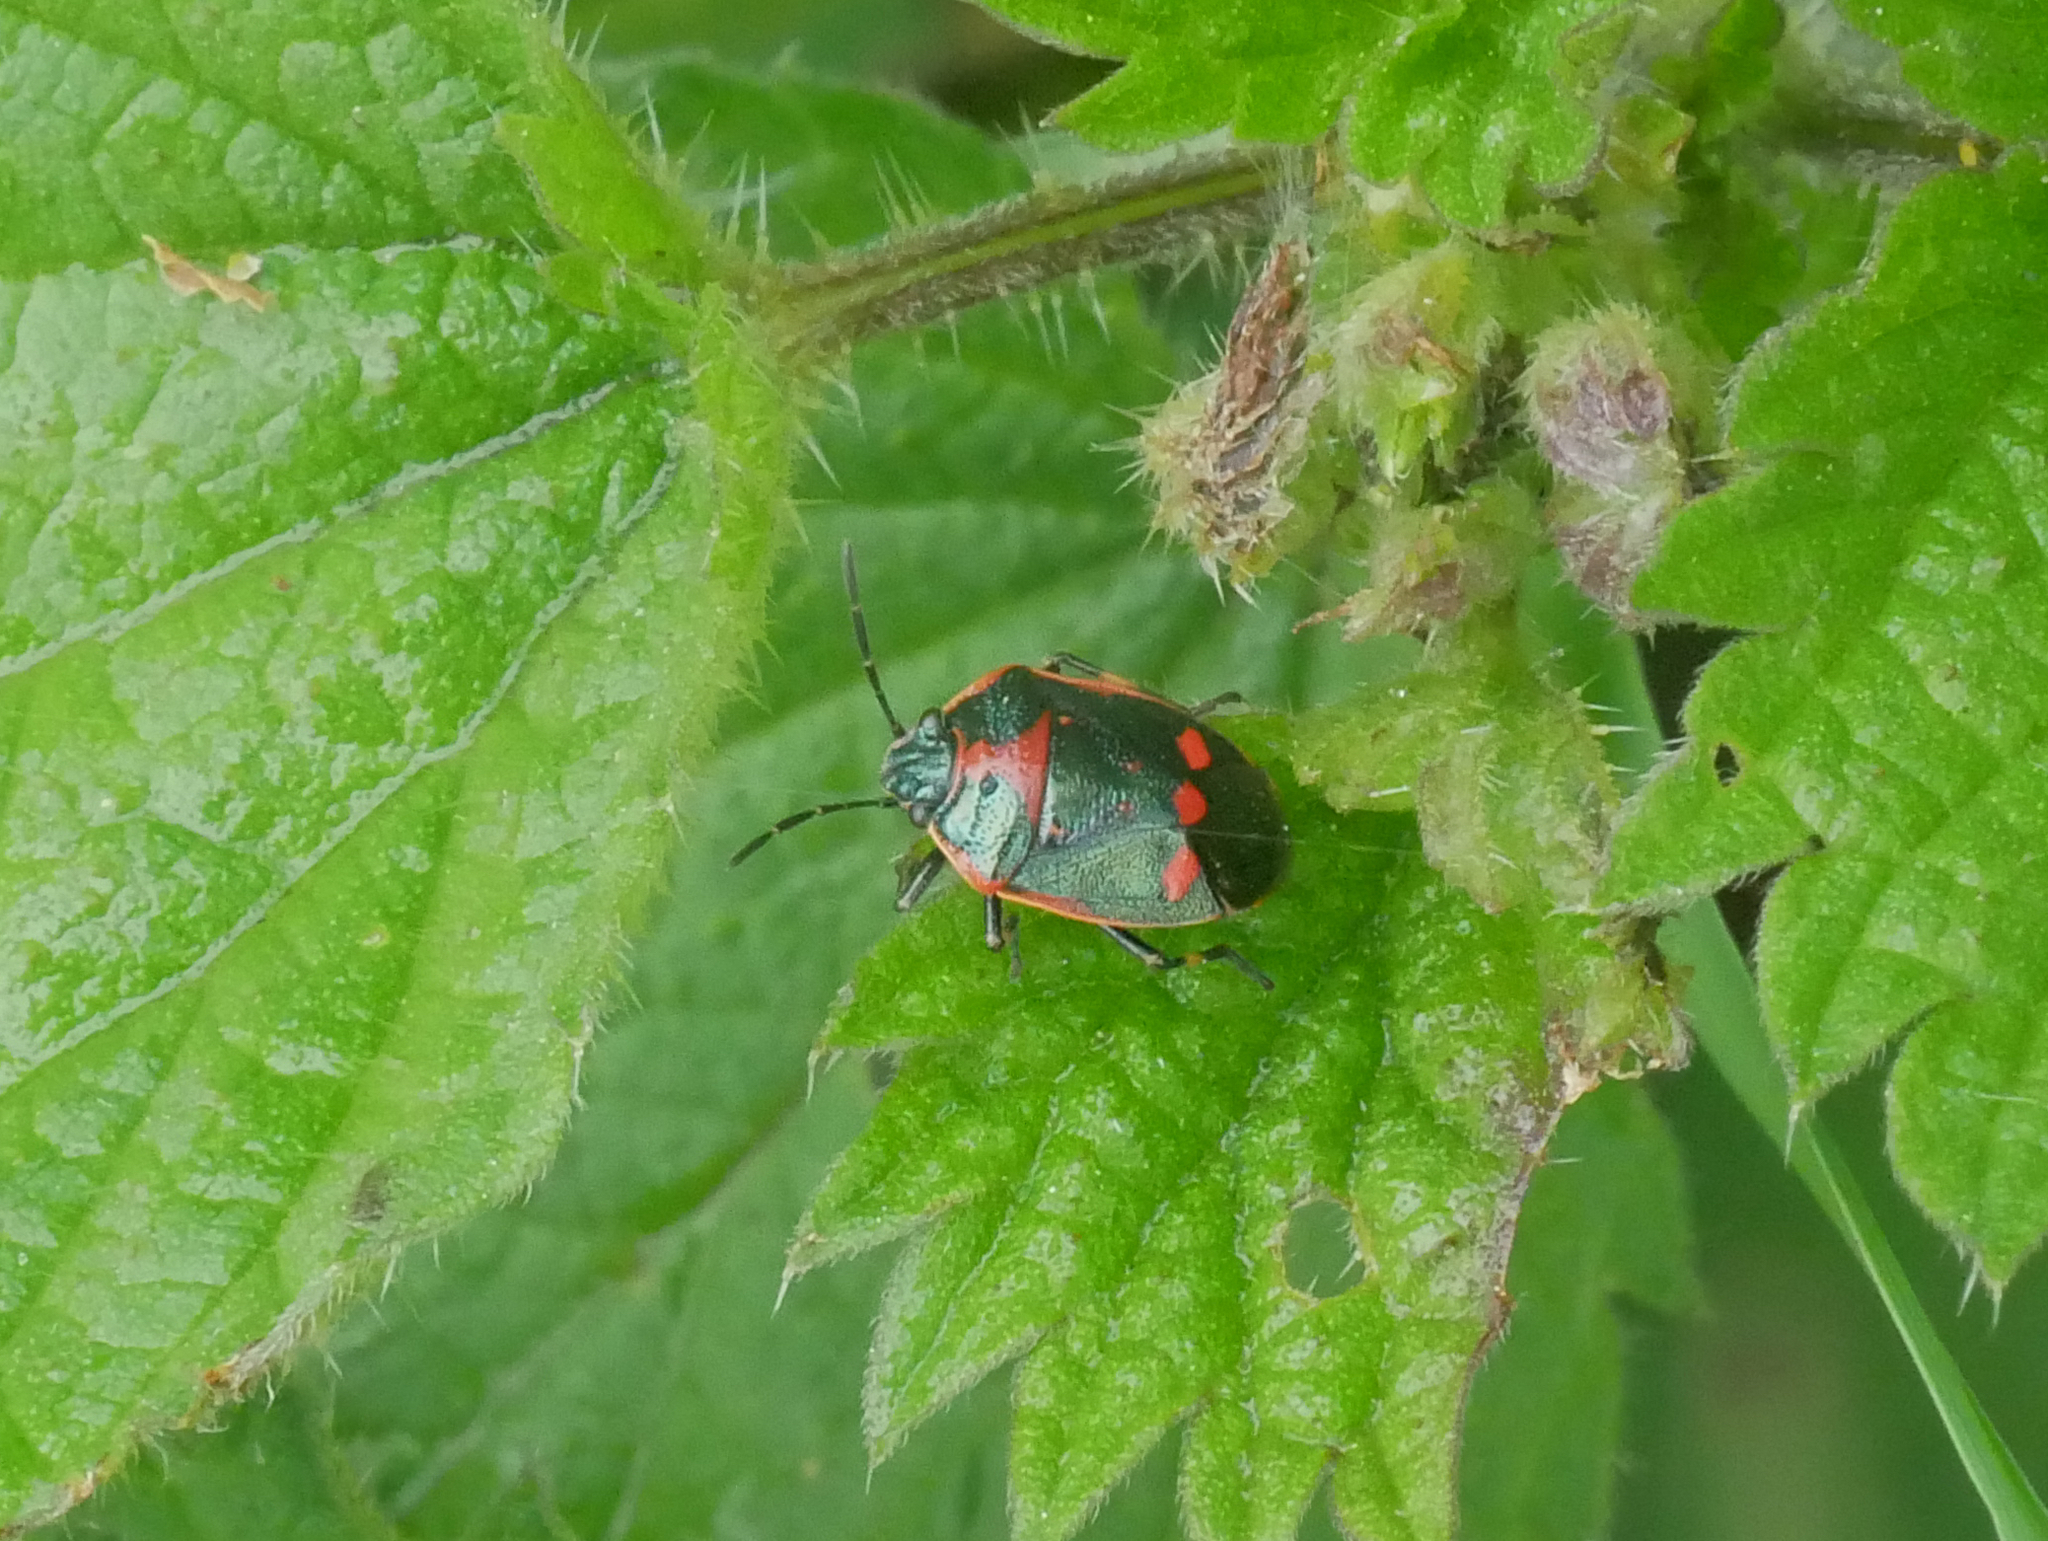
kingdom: Animalia
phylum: Arthropoda
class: Insecta
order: Hemiptera
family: Pentatomidae
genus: Eurydema
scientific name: Eurydema oleracea
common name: Cabbage bug
